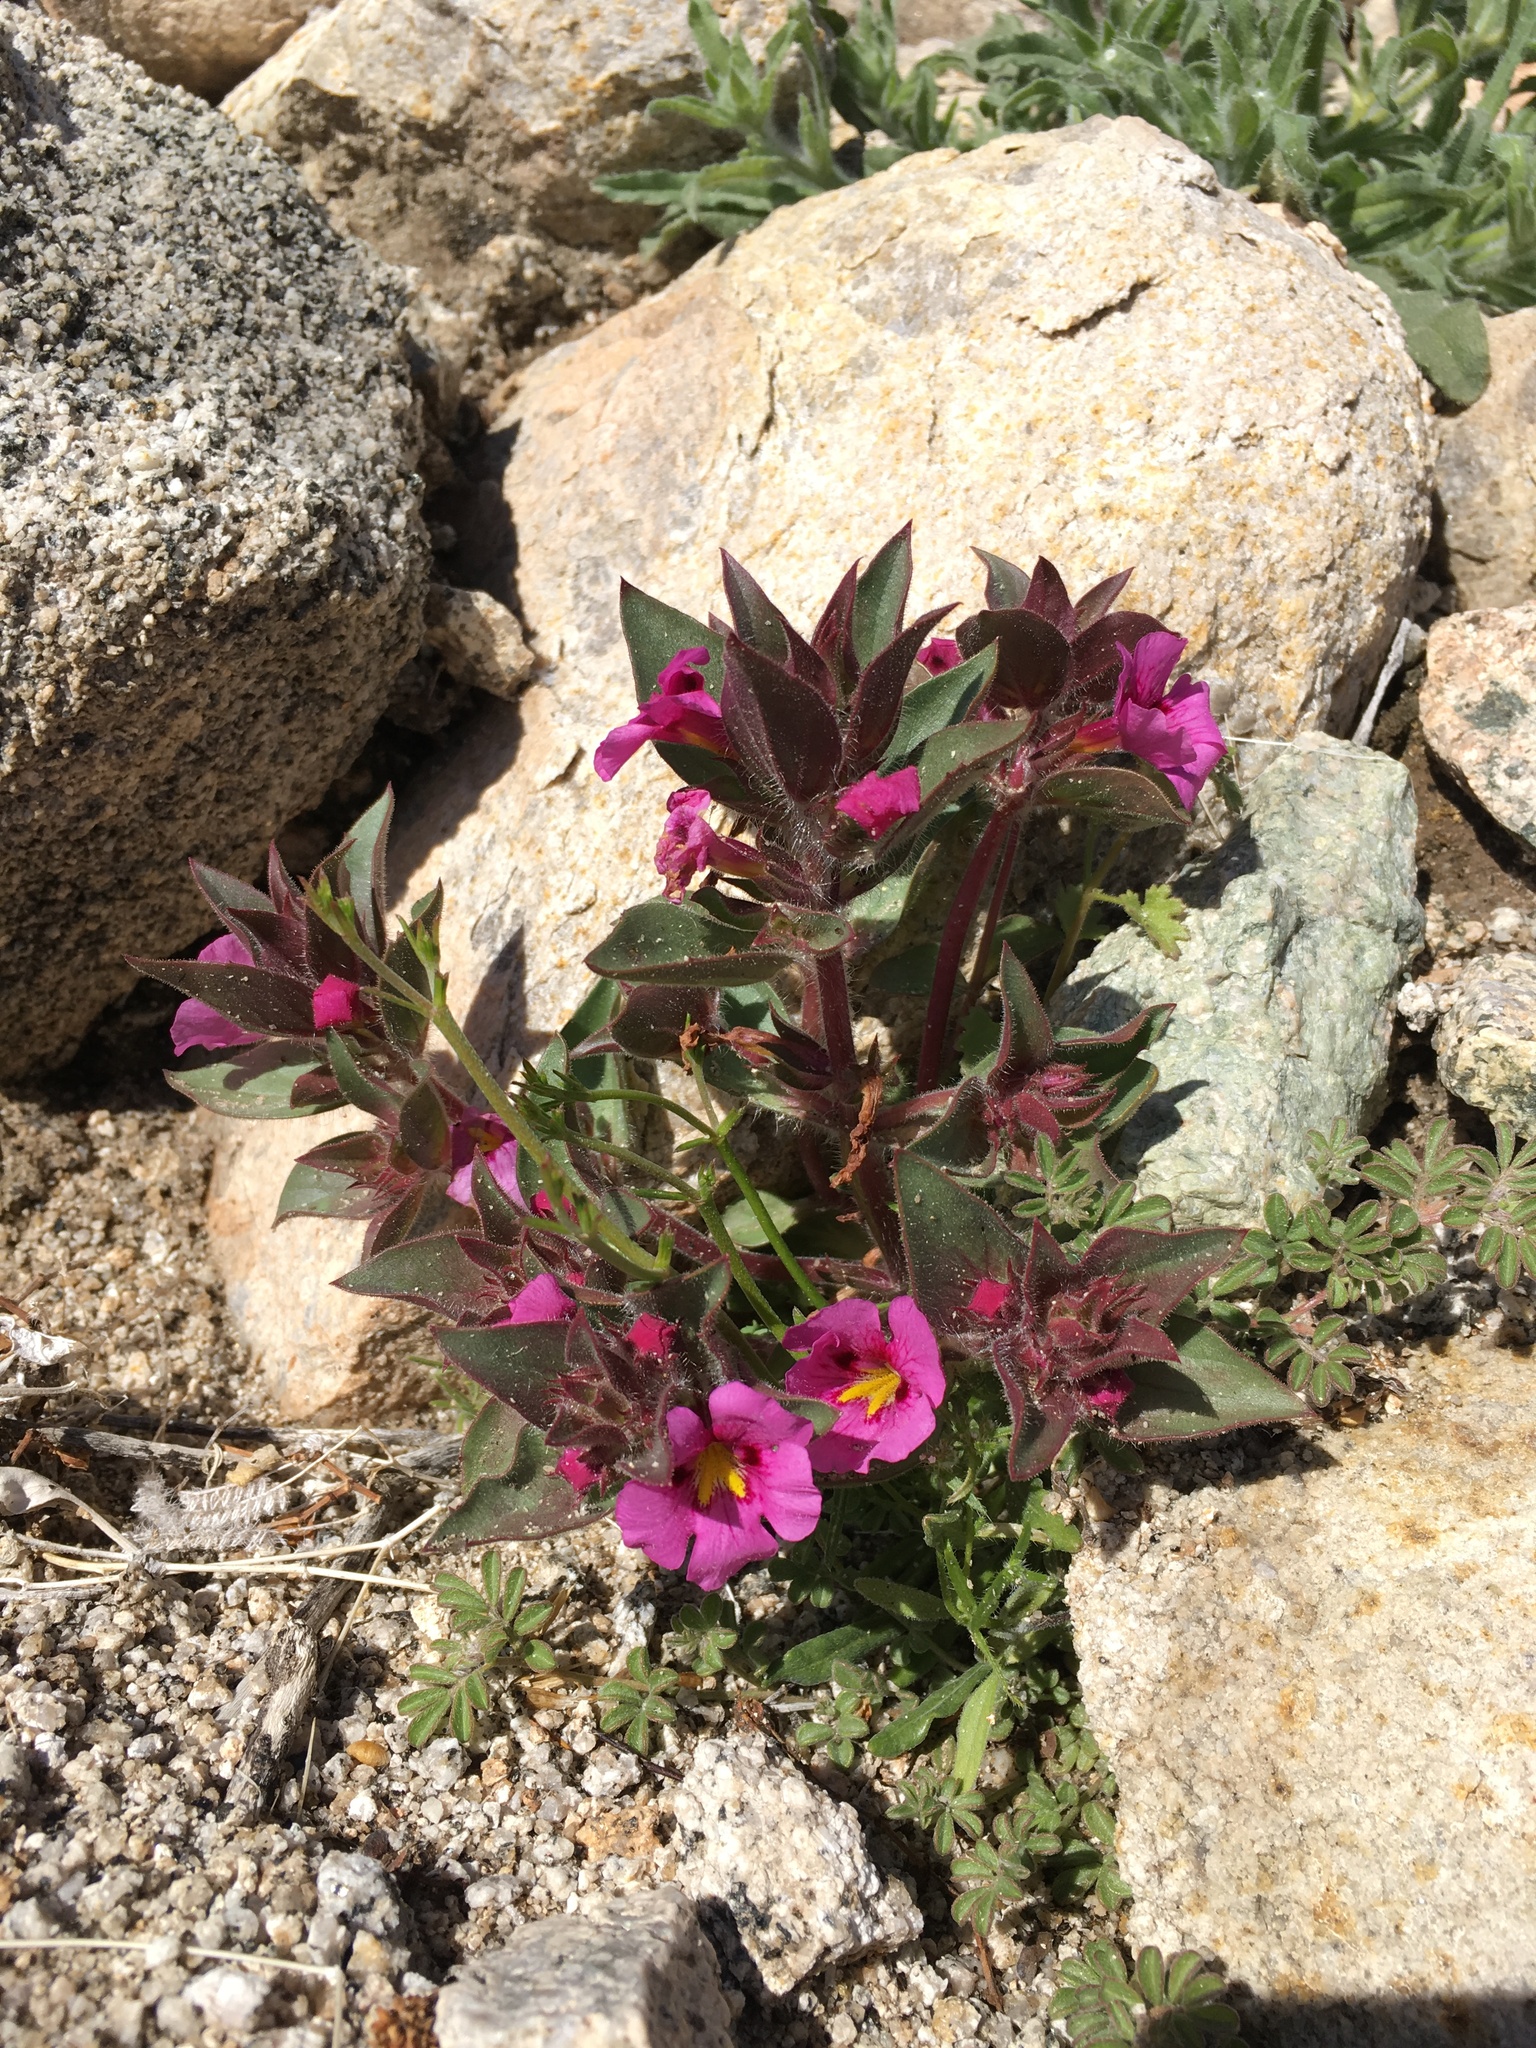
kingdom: Plantae
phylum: Tracheophyta
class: Magnoliopsida
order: Lamiales
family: Phrymaceae
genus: Diplacus
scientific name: Diplacus bigelovii
